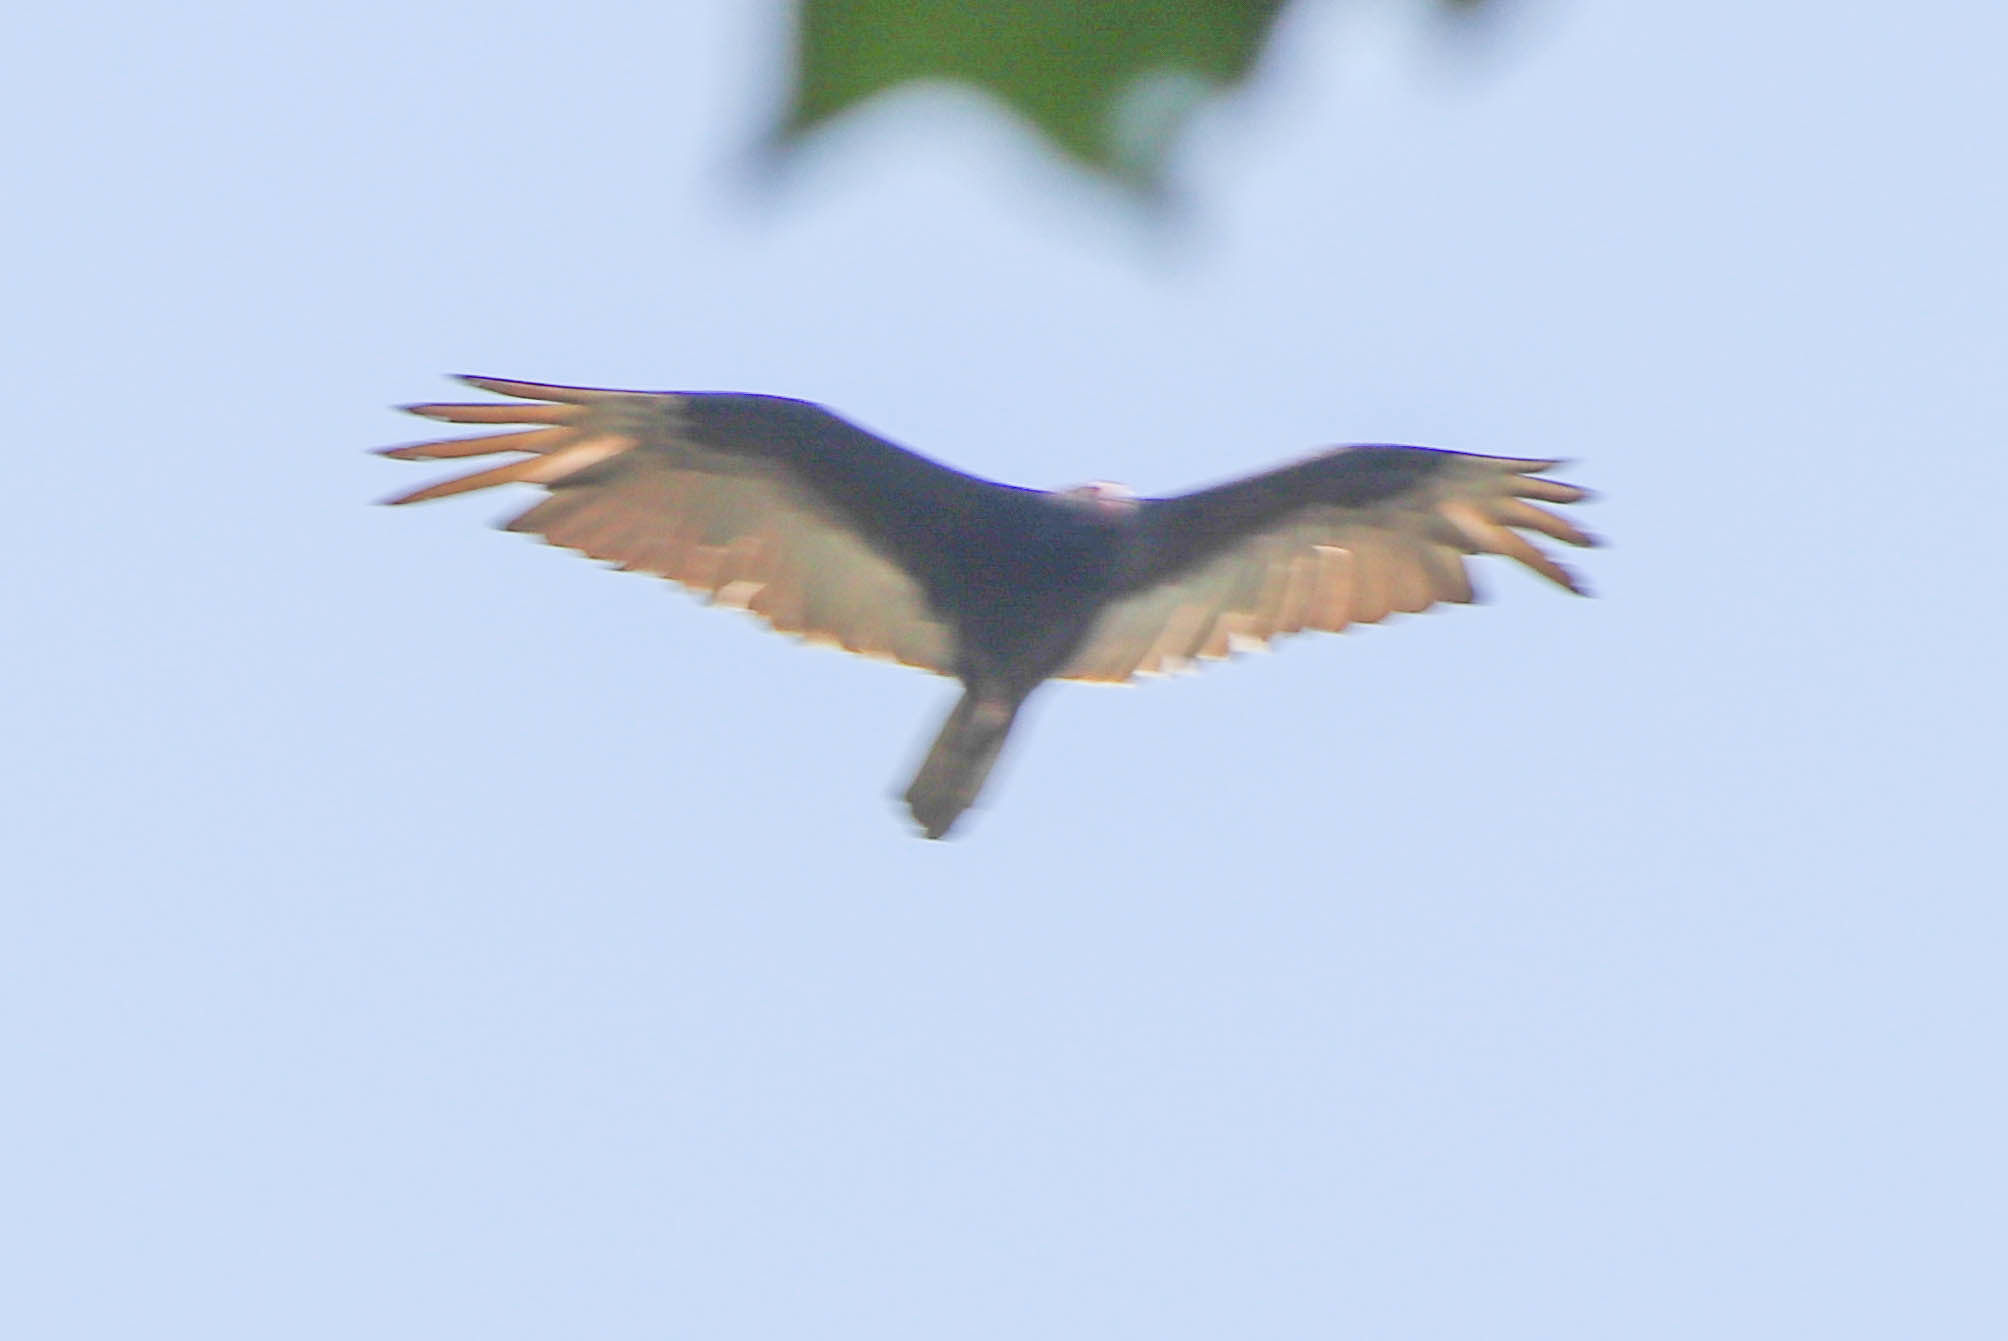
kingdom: Animalia
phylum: Chordata
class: Aves
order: Accipitriformes
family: Cathartidae
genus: Cathartes
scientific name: Cathartes aura
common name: Turkey vulture
